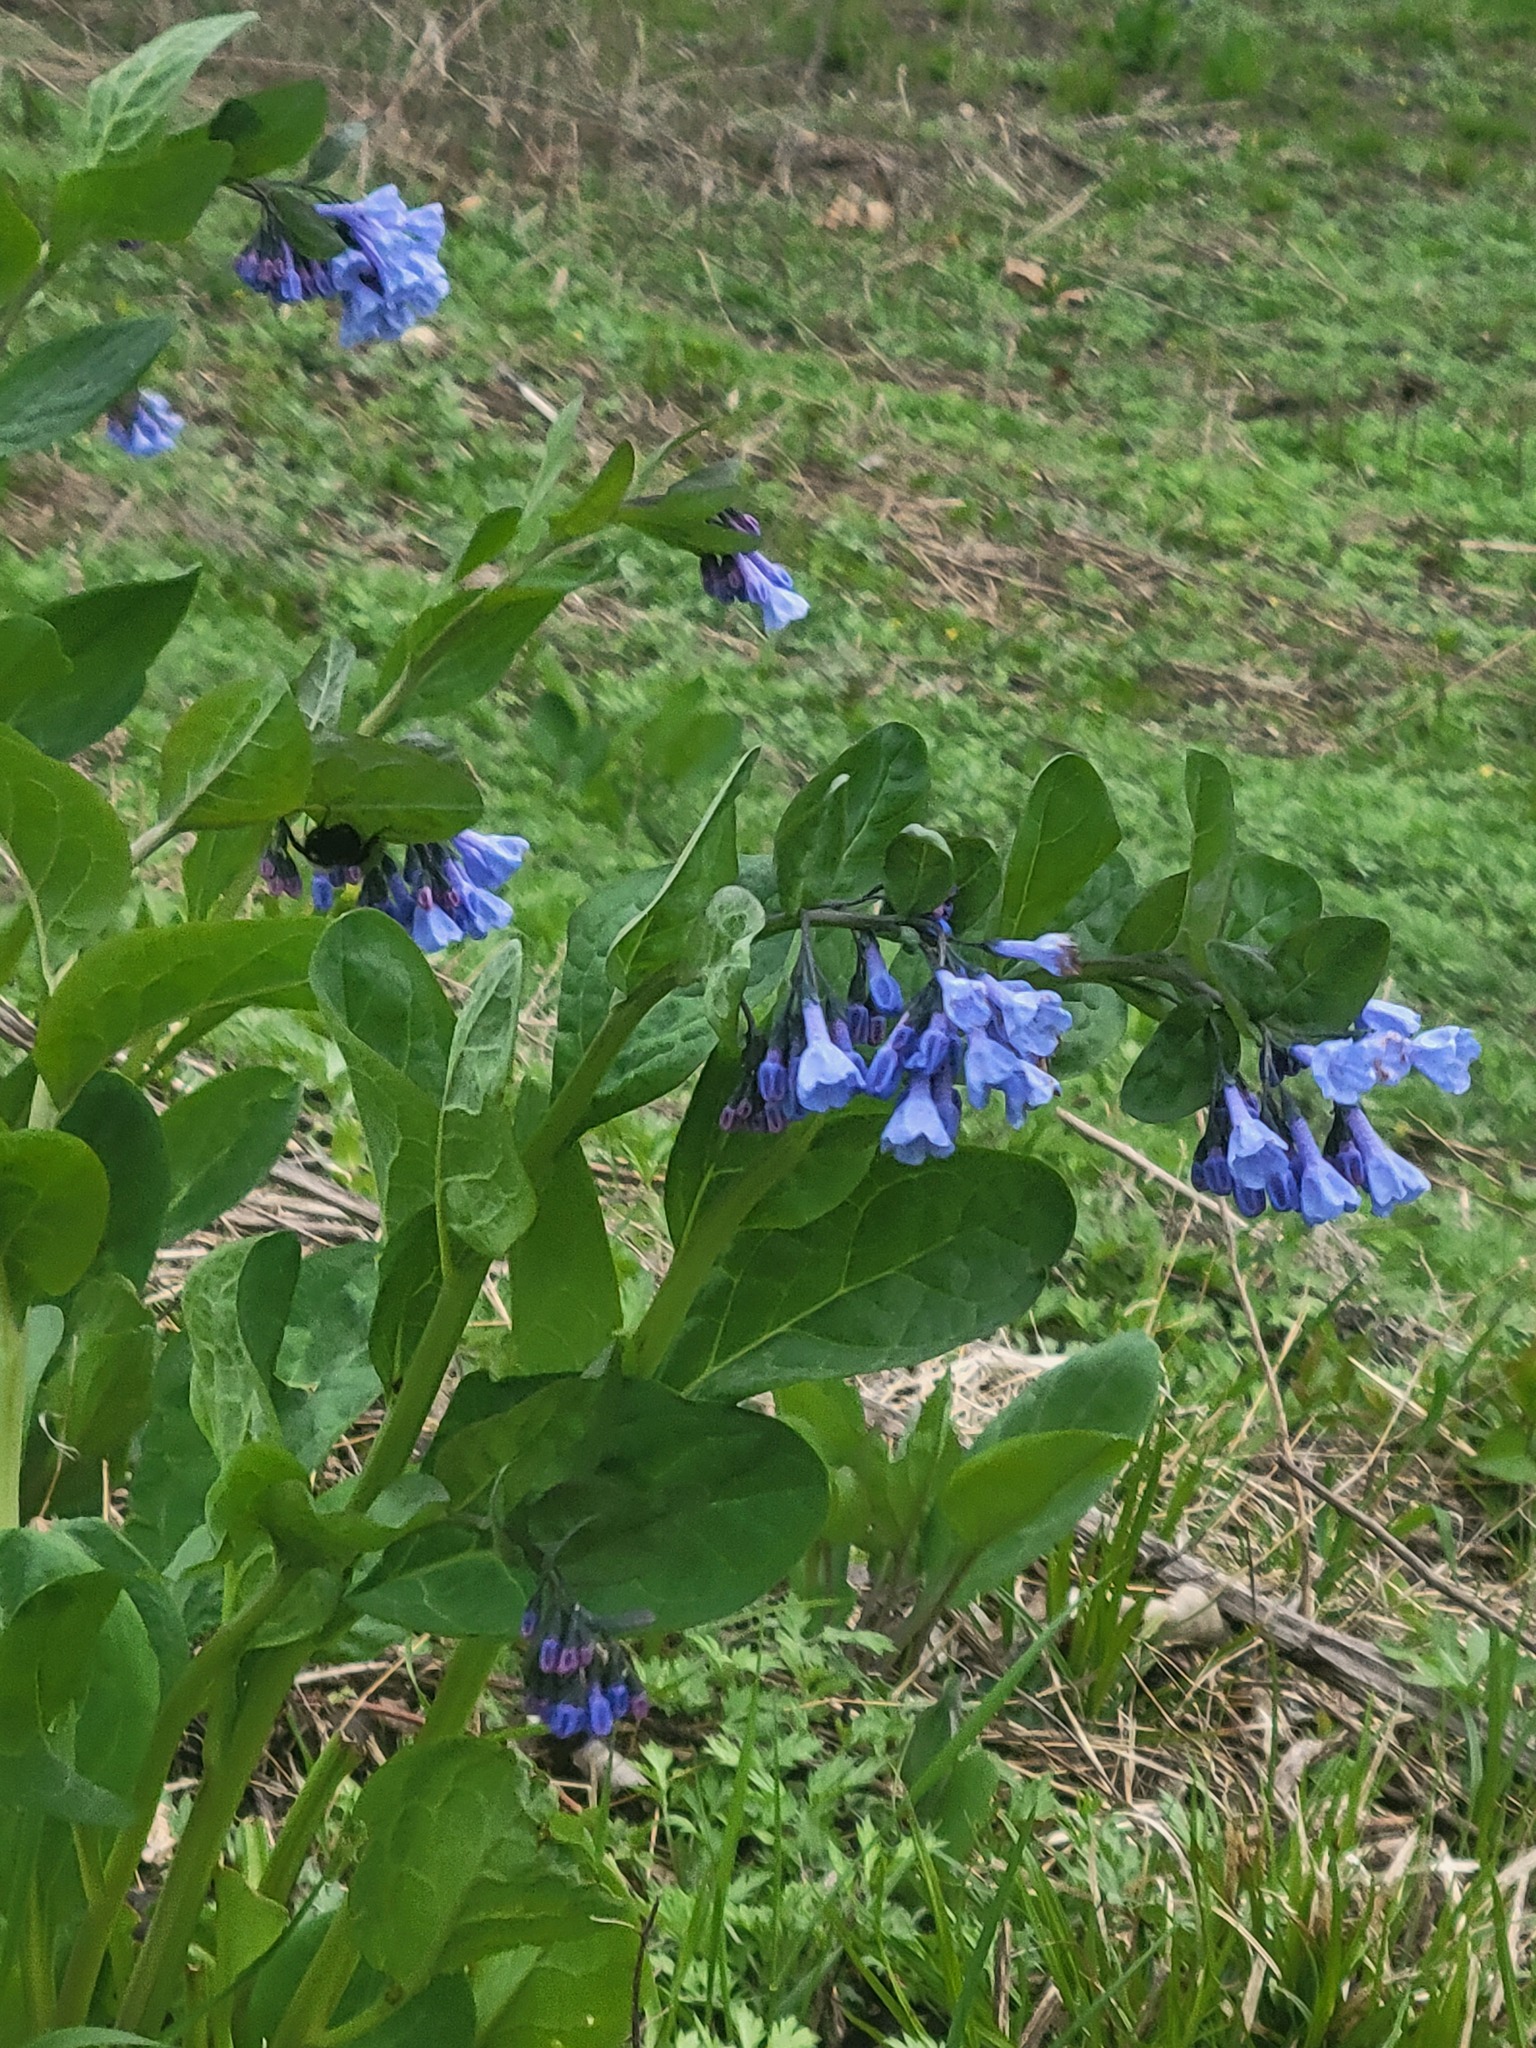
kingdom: Plantae
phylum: Tracheophyta
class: Magnoliopsida
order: Boraginales
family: Boraginaceae
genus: Mertensia
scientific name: Mertensia virginica
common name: Virginia bluebells
